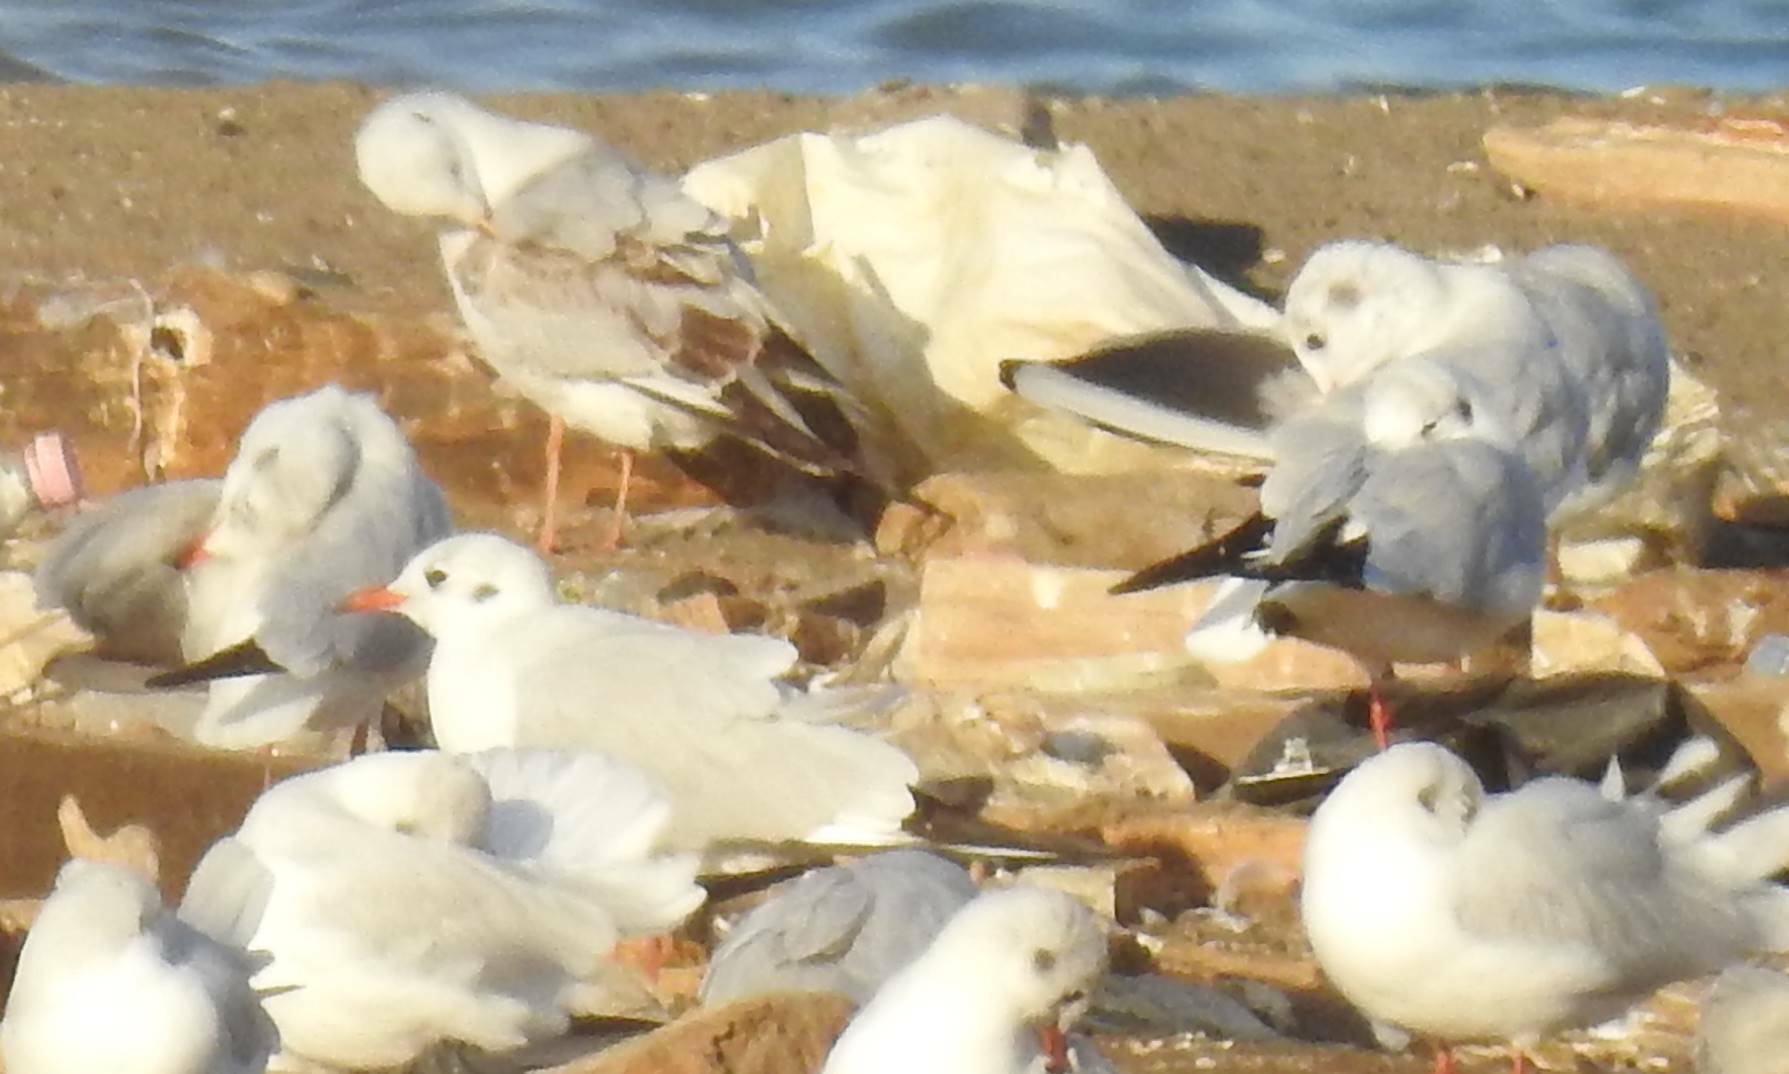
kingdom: Animalia
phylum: Chordata
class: Aves
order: Charadriiformes
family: Laridae
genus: Chroicocephalus
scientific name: Chroicocephalus ridibundus
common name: Black-headed gull
